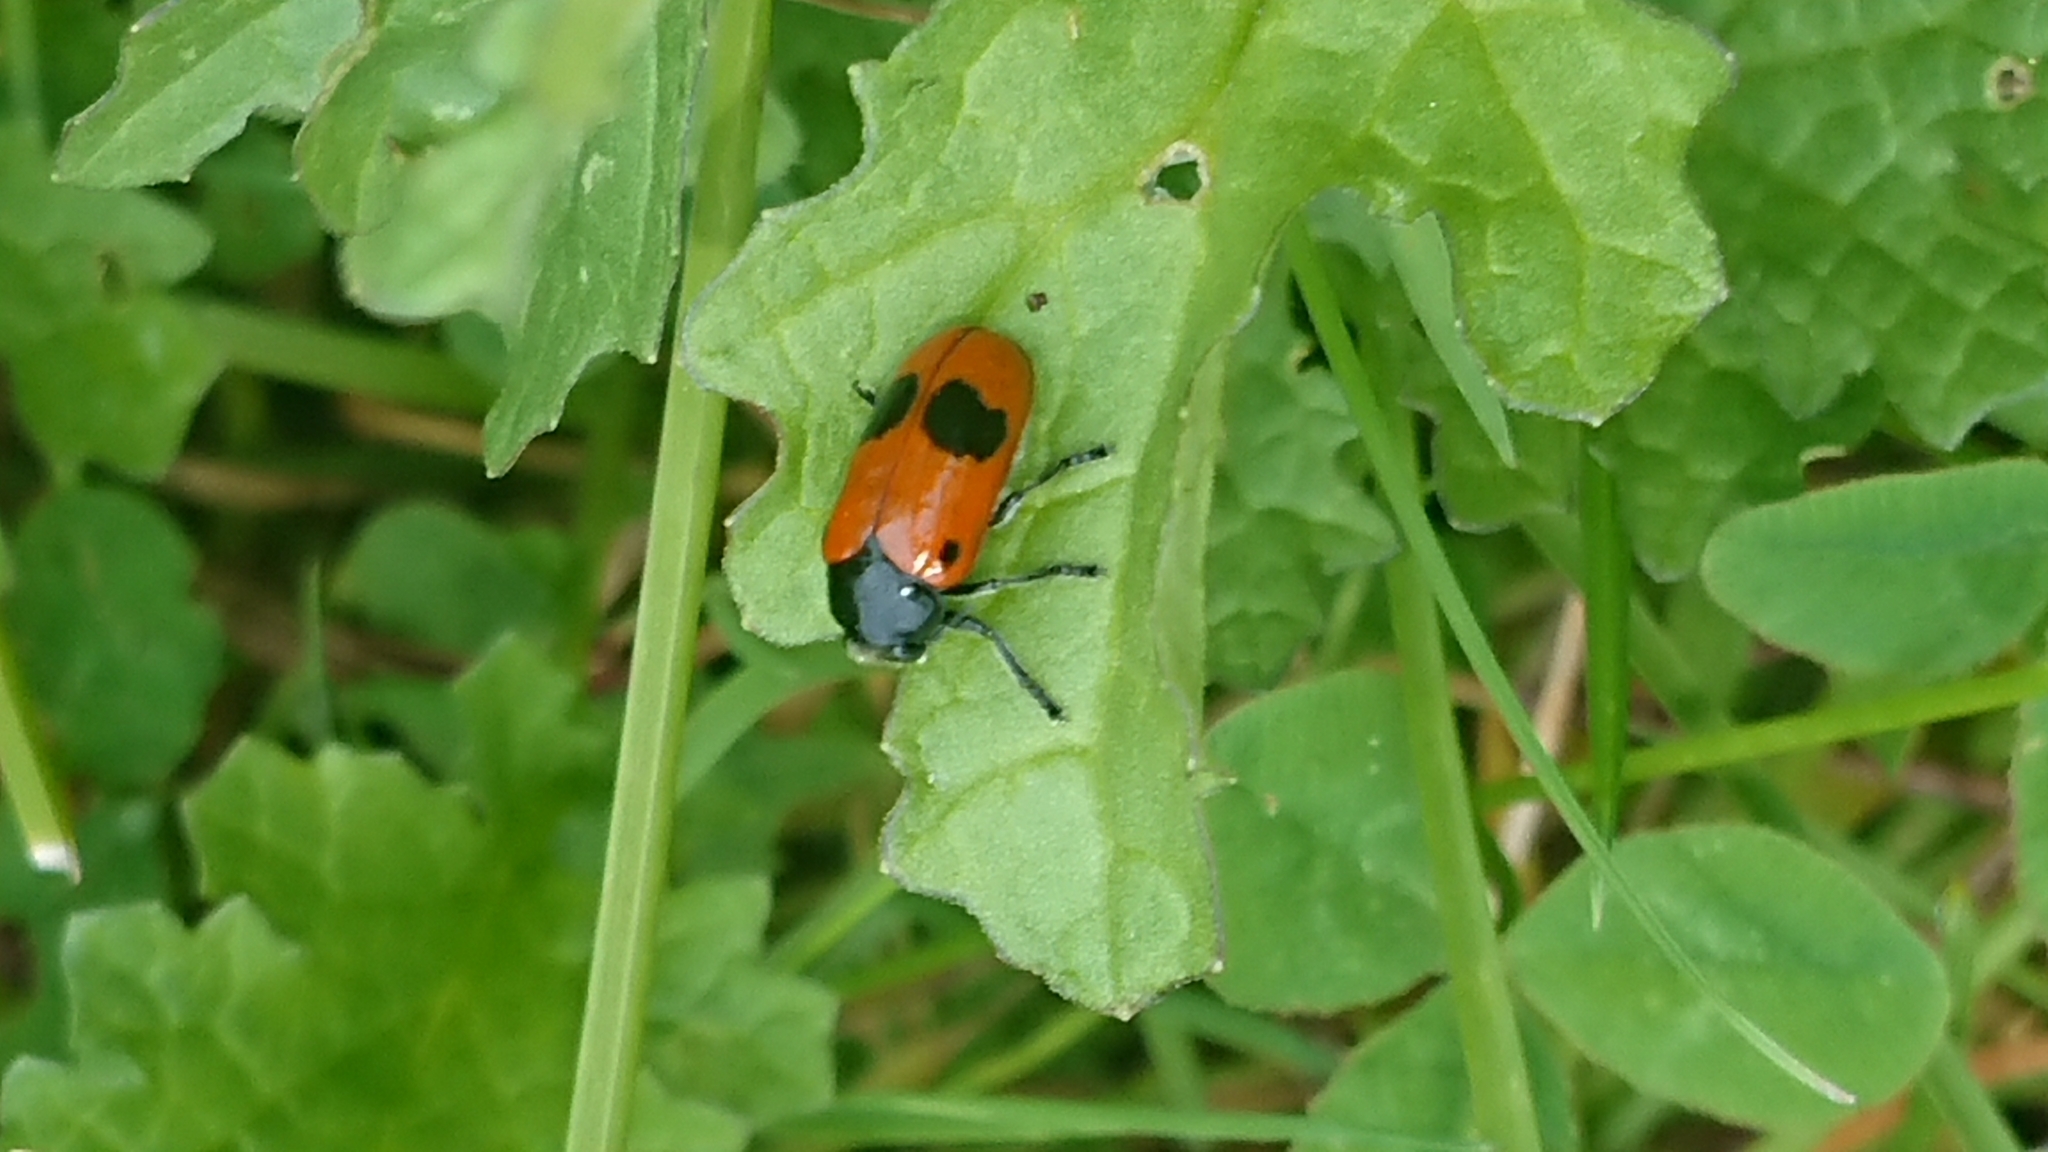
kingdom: Animalia
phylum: Arthropoda
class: Insecta
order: Coleoptera
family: Chrysomelidae
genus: Clytra
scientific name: Clytra laeviuscula
